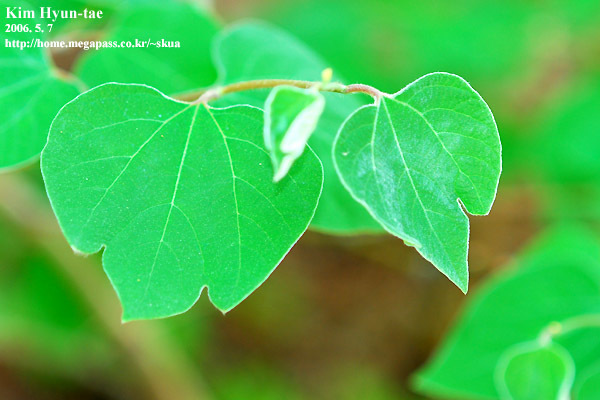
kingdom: Plantae
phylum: Tracheophyta
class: Magnoliopsida
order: Laurales
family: Lauraceae
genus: Lindera
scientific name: Lindera obtusiloba
